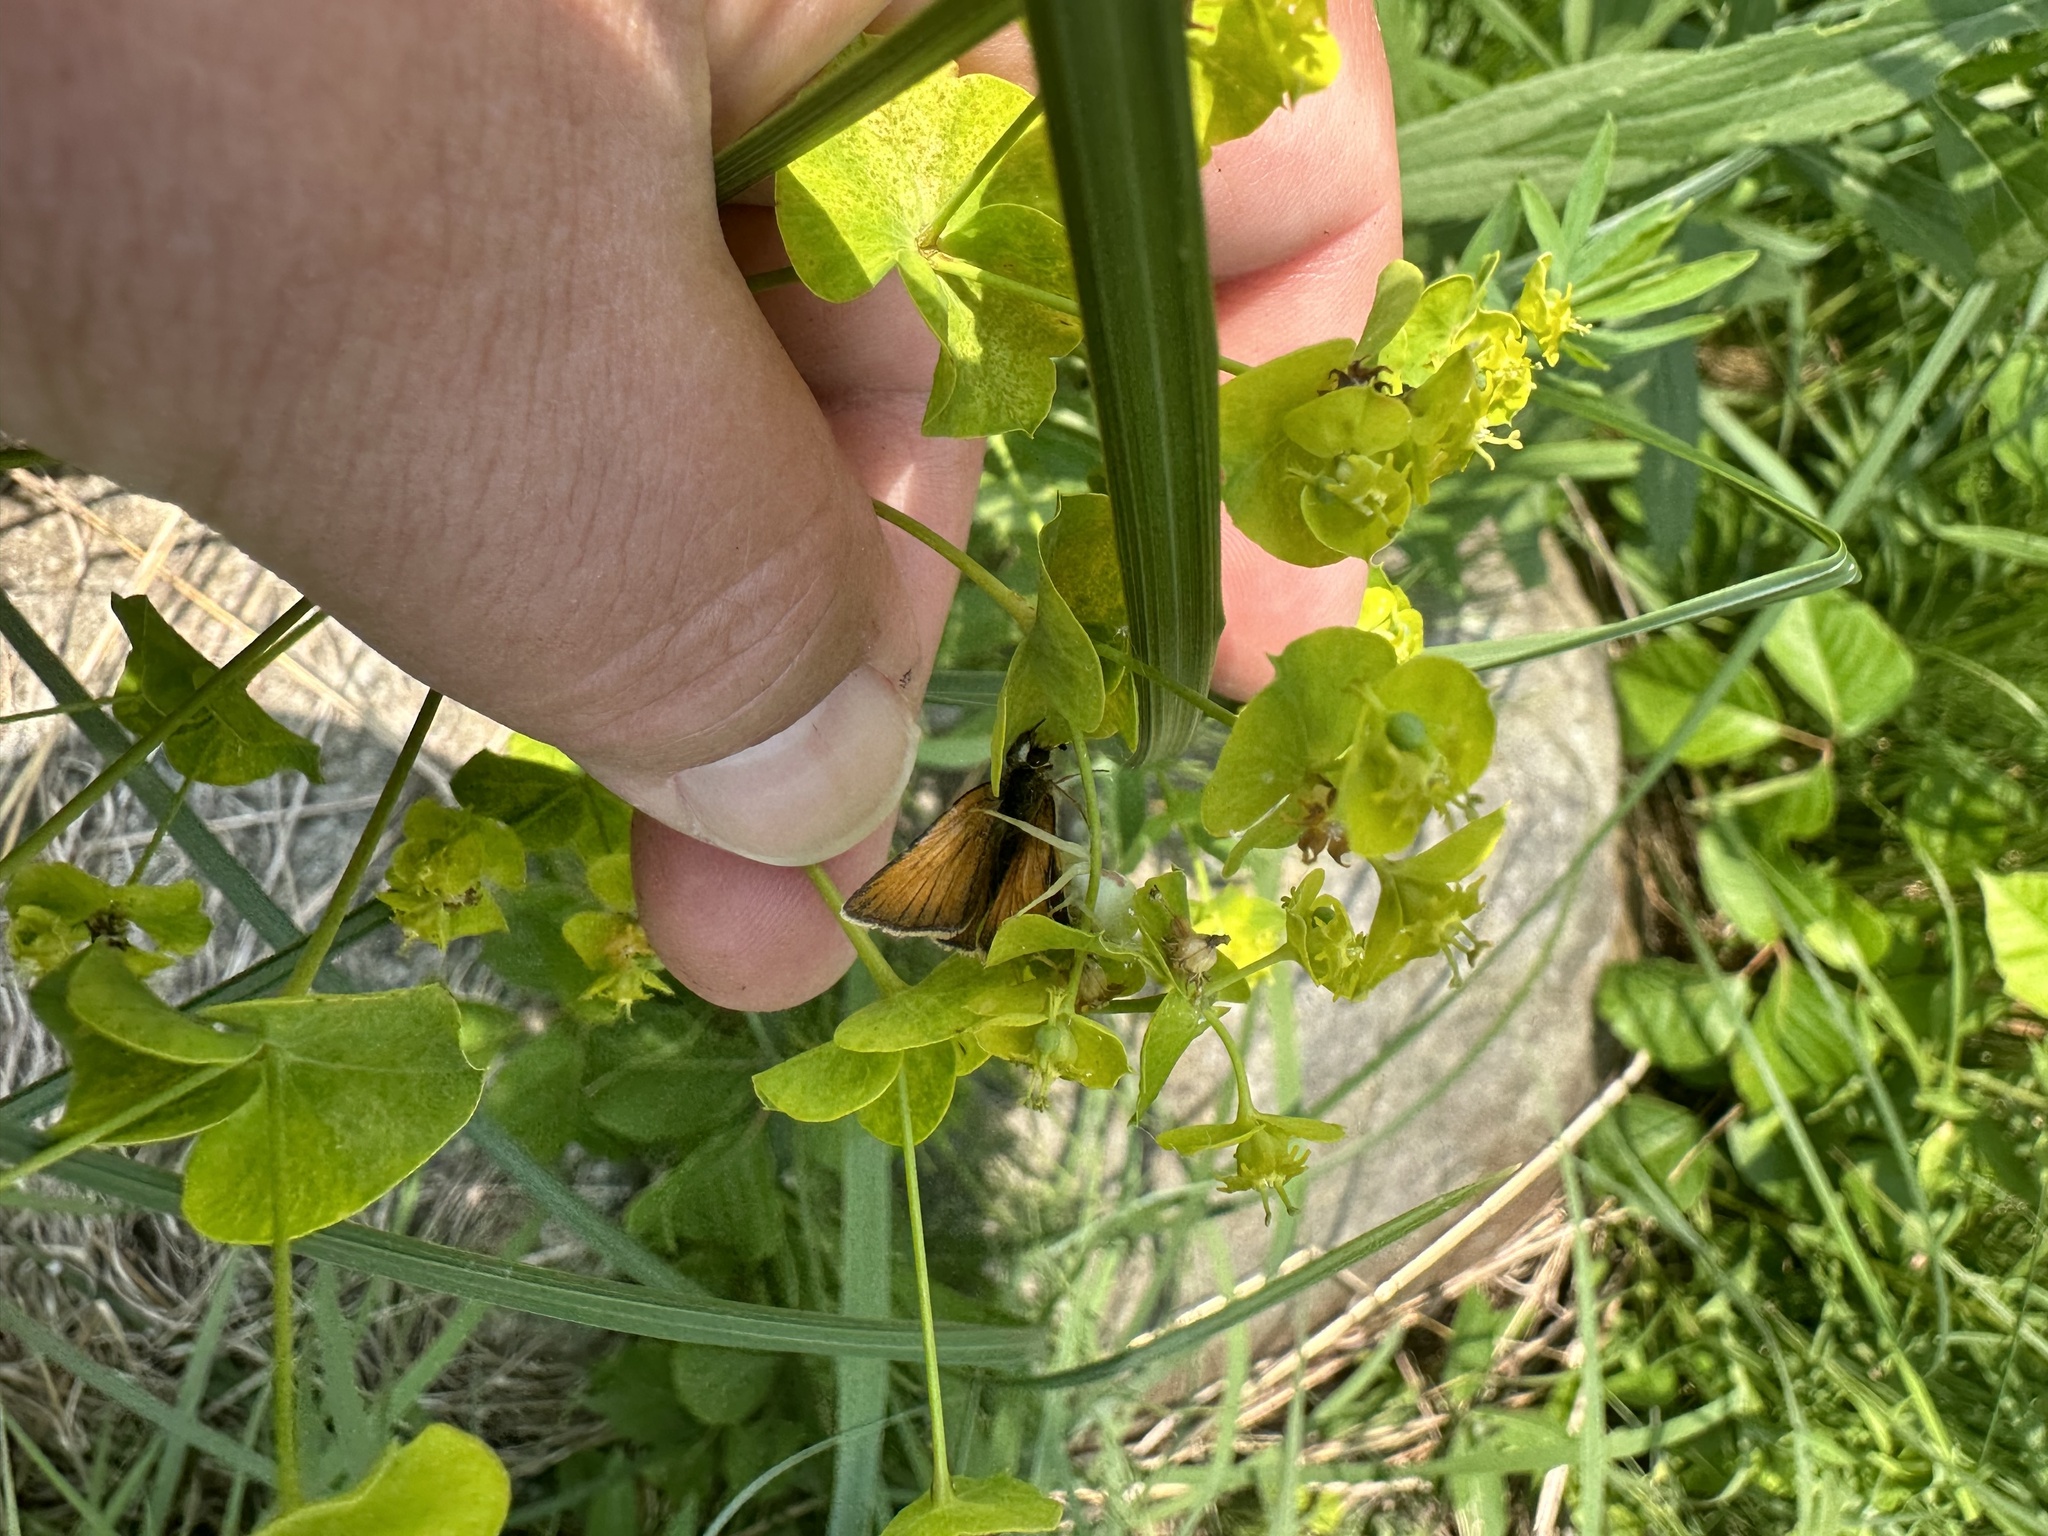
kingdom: Animalia
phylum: Arthropoda
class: Insecta
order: Lepidoptera
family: Hesperiidae
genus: Thymelicus
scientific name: Thymelicus lineola
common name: Essex skipper
